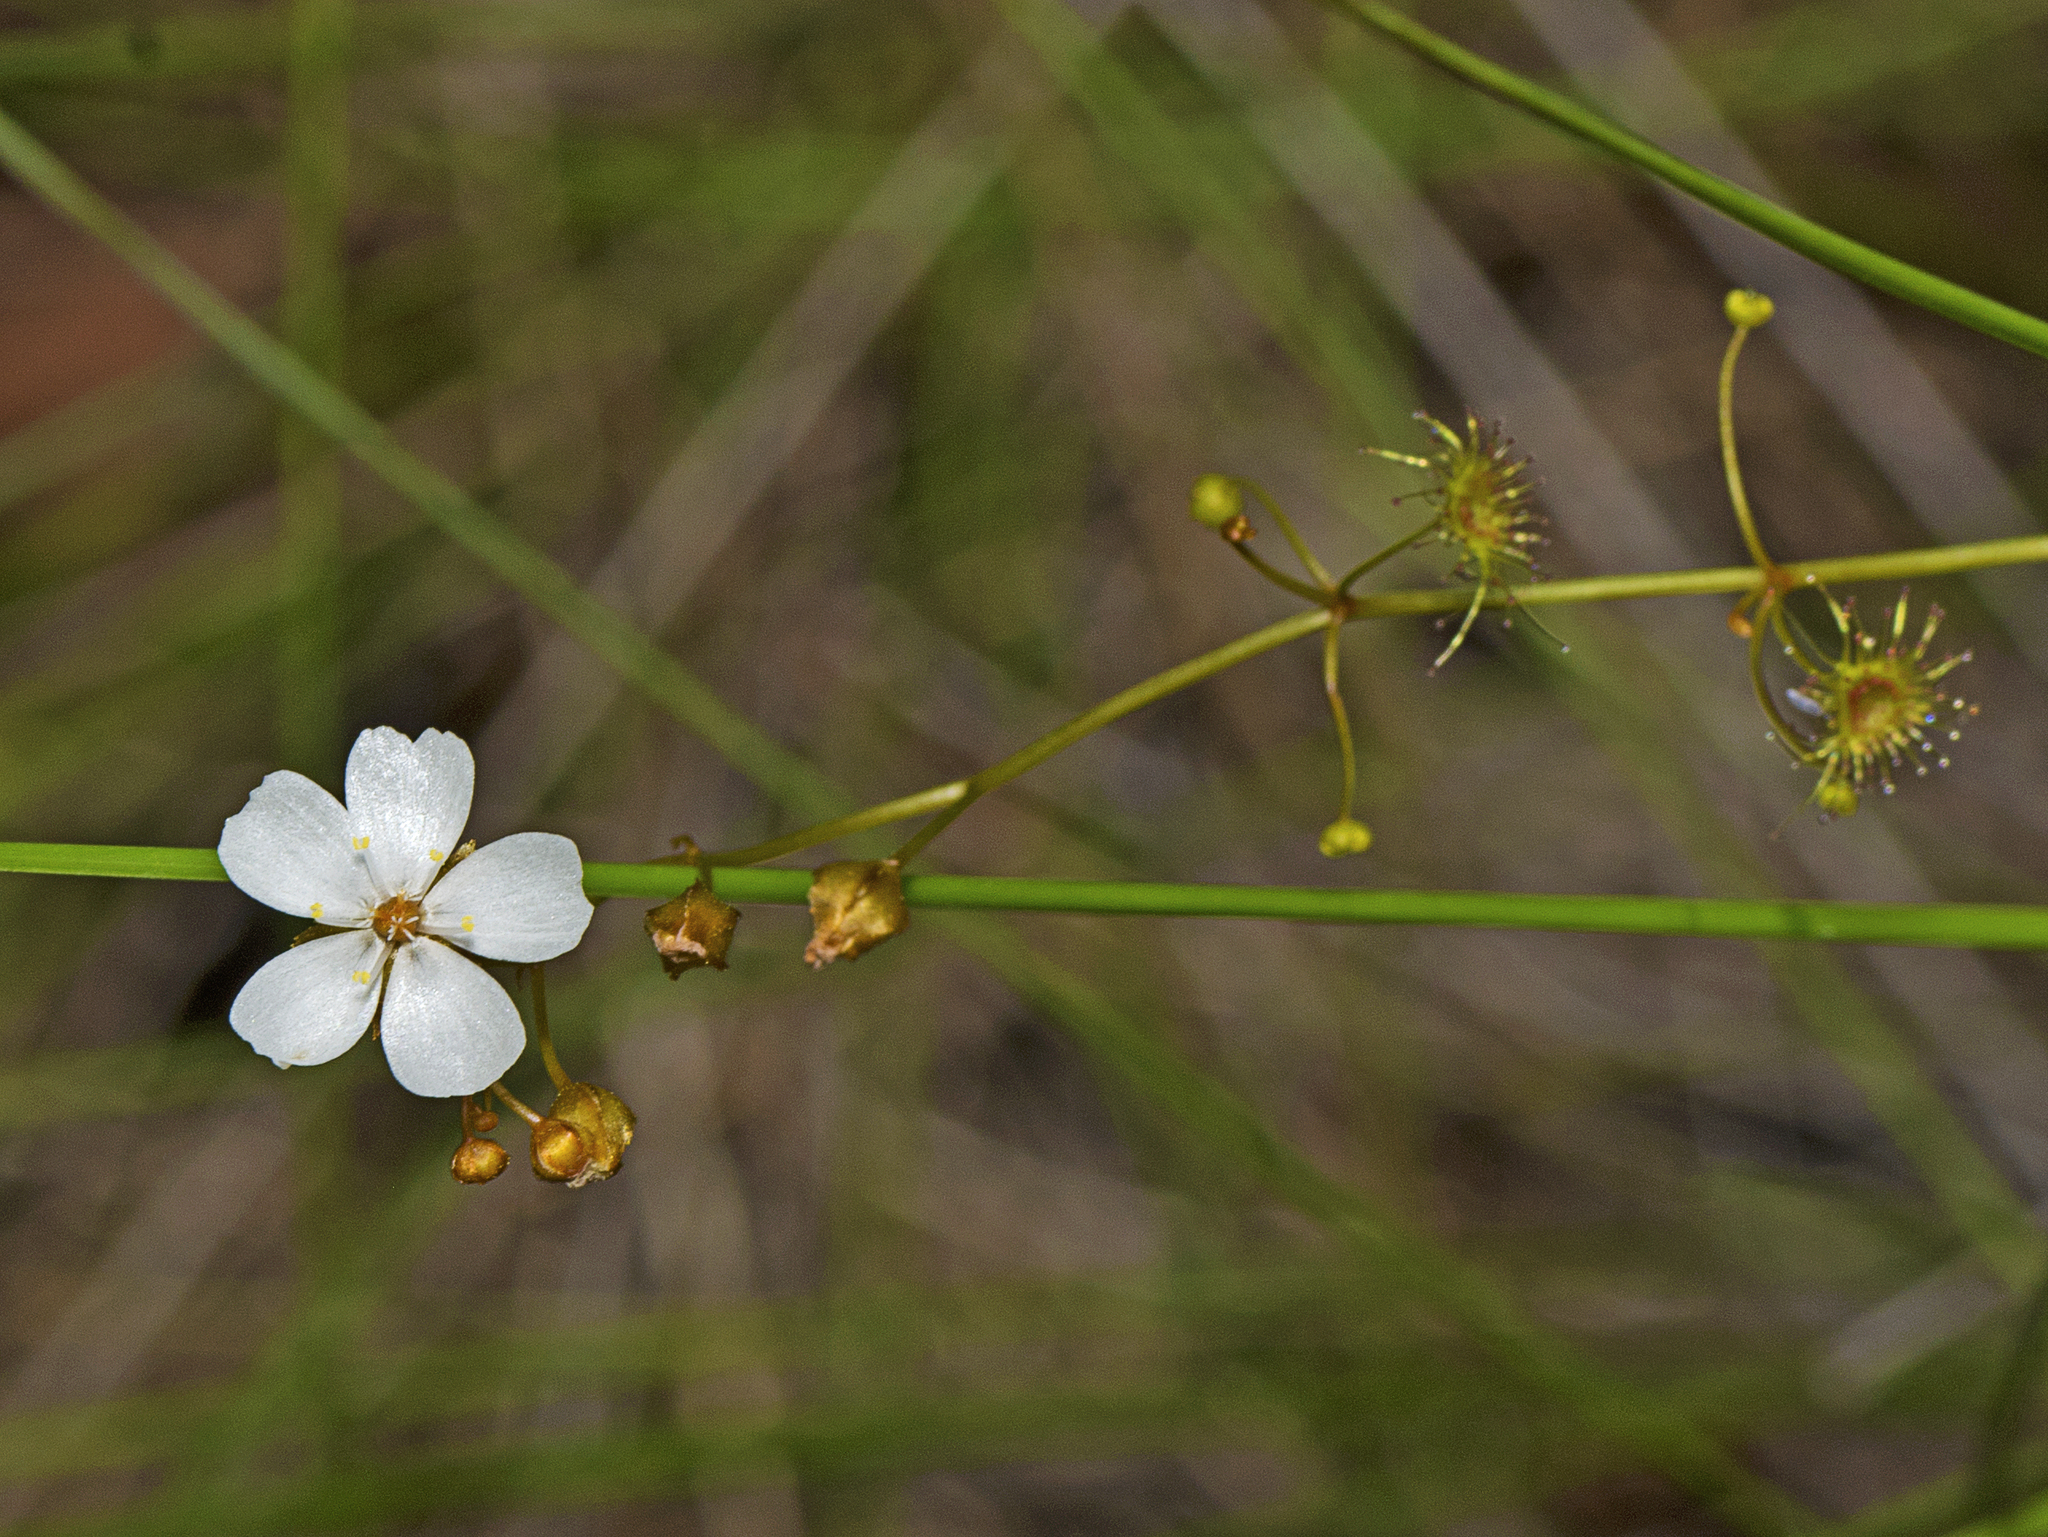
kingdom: Plantae
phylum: Tracheophyta
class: Magnoliopsida
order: Caryophyllales
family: Droseraceae
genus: Drosera
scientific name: Drosera peltata
